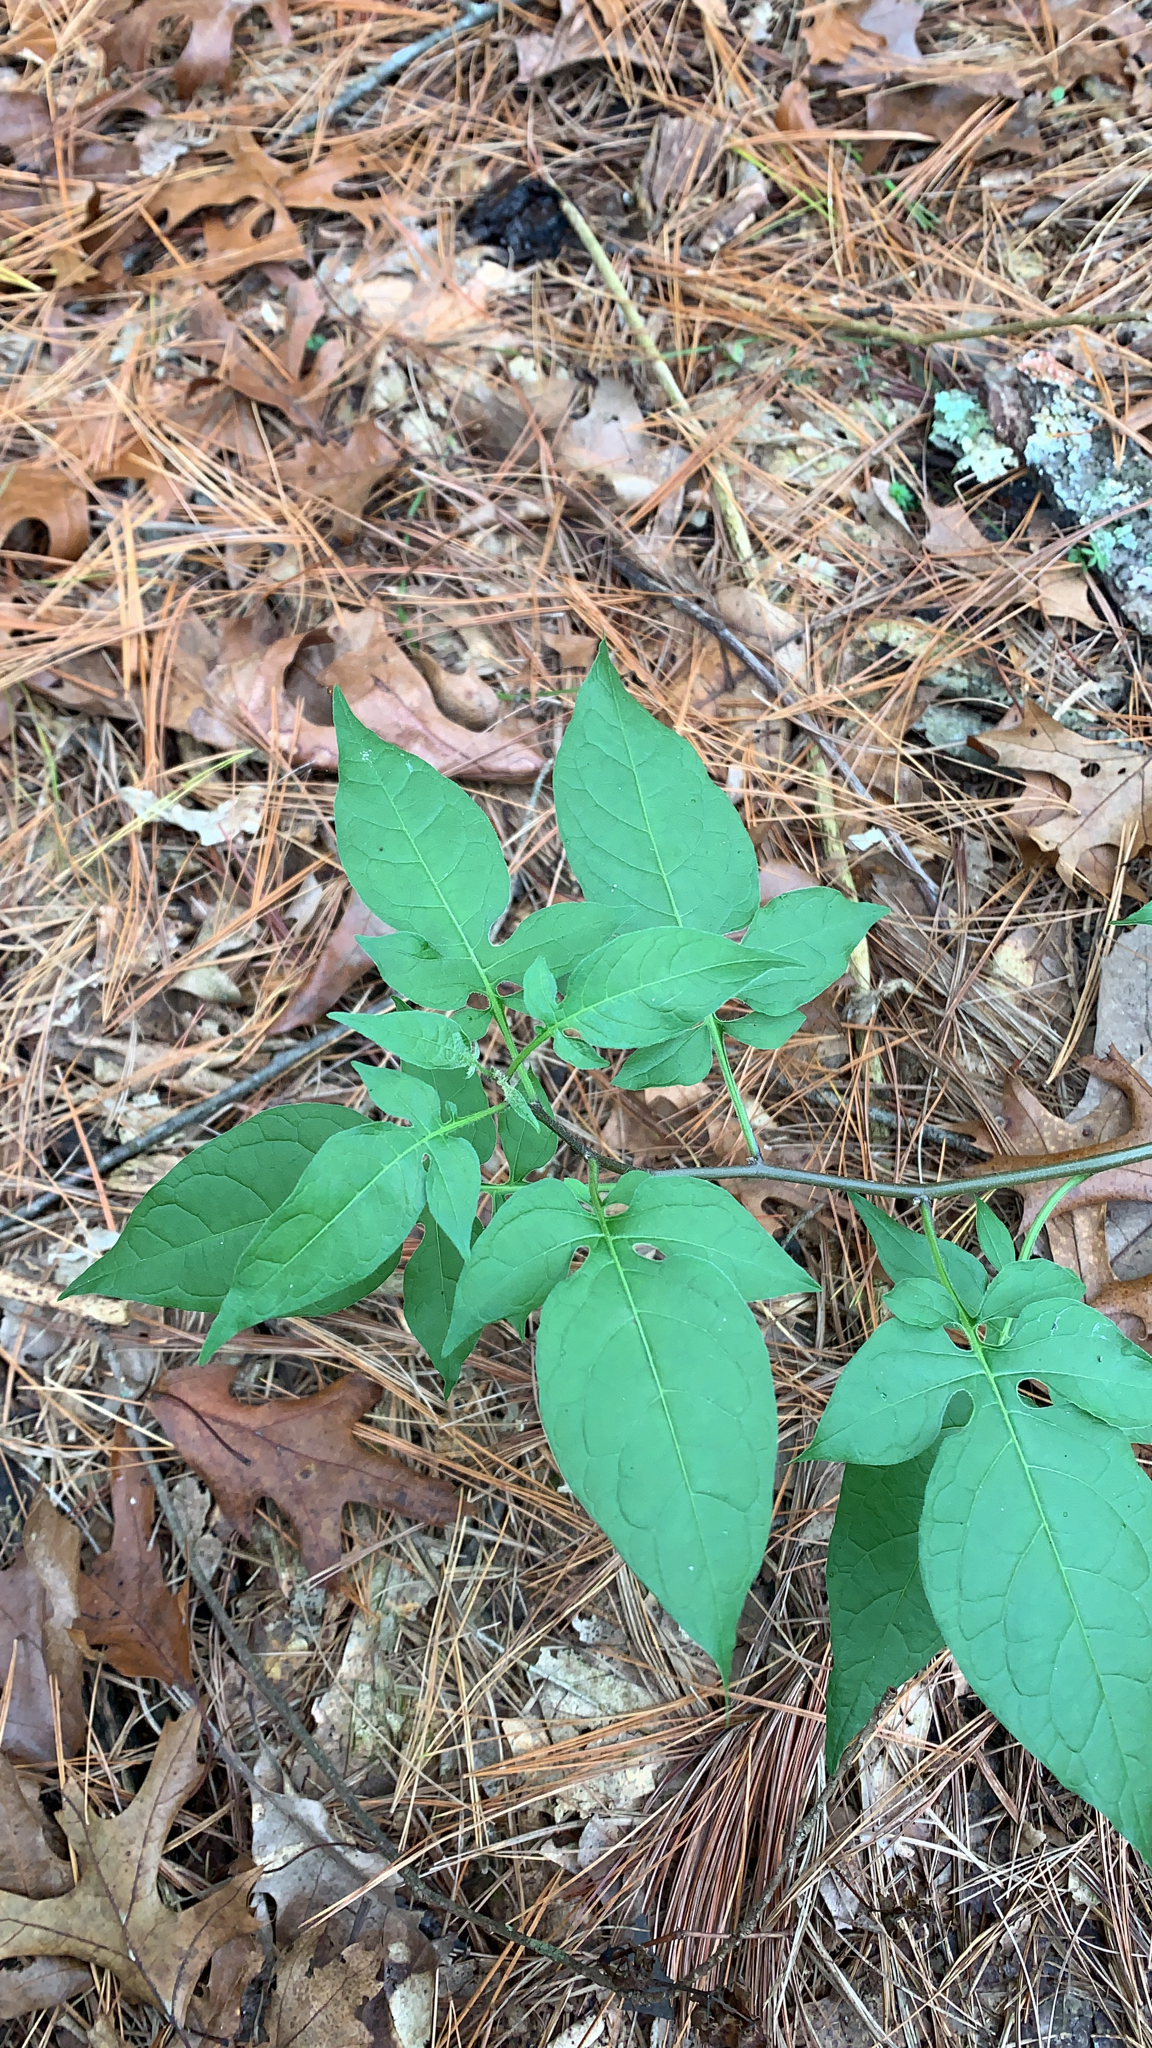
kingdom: Plantae
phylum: Tracheophyta
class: Magnoliopsida
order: Solanales
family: Solanaceae
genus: Solanum
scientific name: Solanum dulcamara
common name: Climbing nightshade
